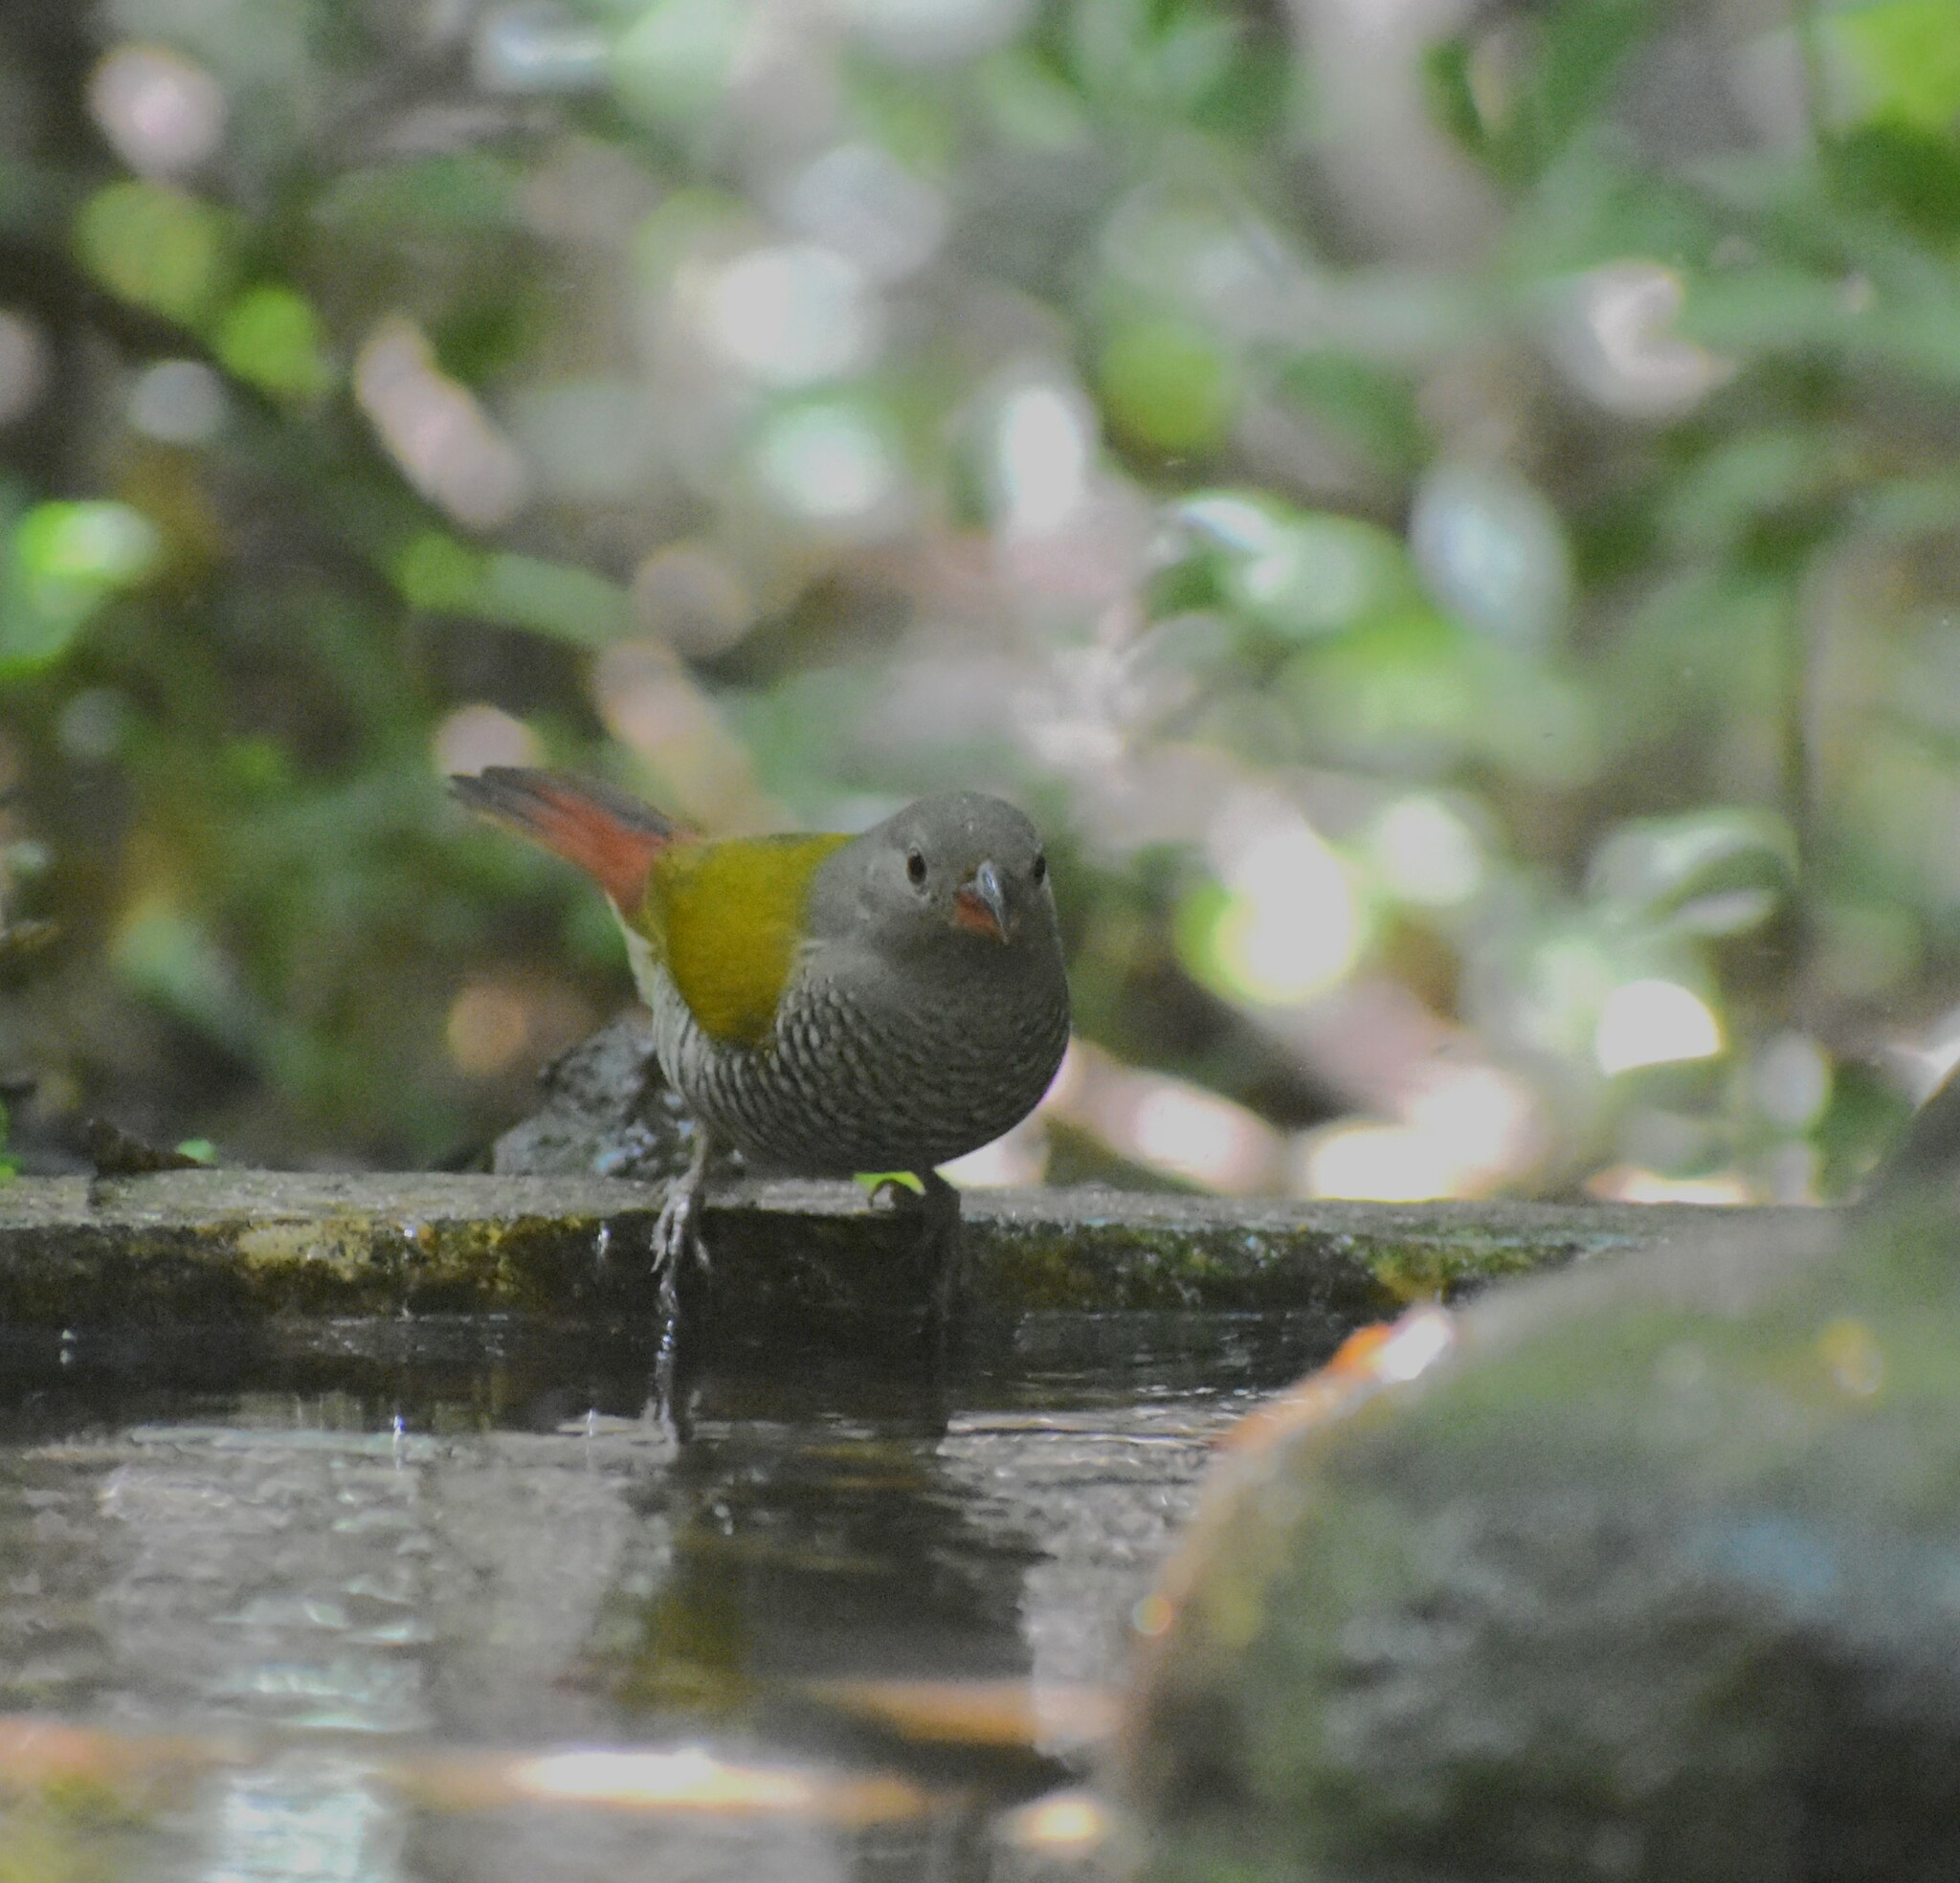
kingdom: Animalia
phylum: Chordata
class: Aves
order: Passeriformes
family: Estrildidae
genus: Pytilia
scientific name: Pytilia melba
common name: Green-winged pytilia
